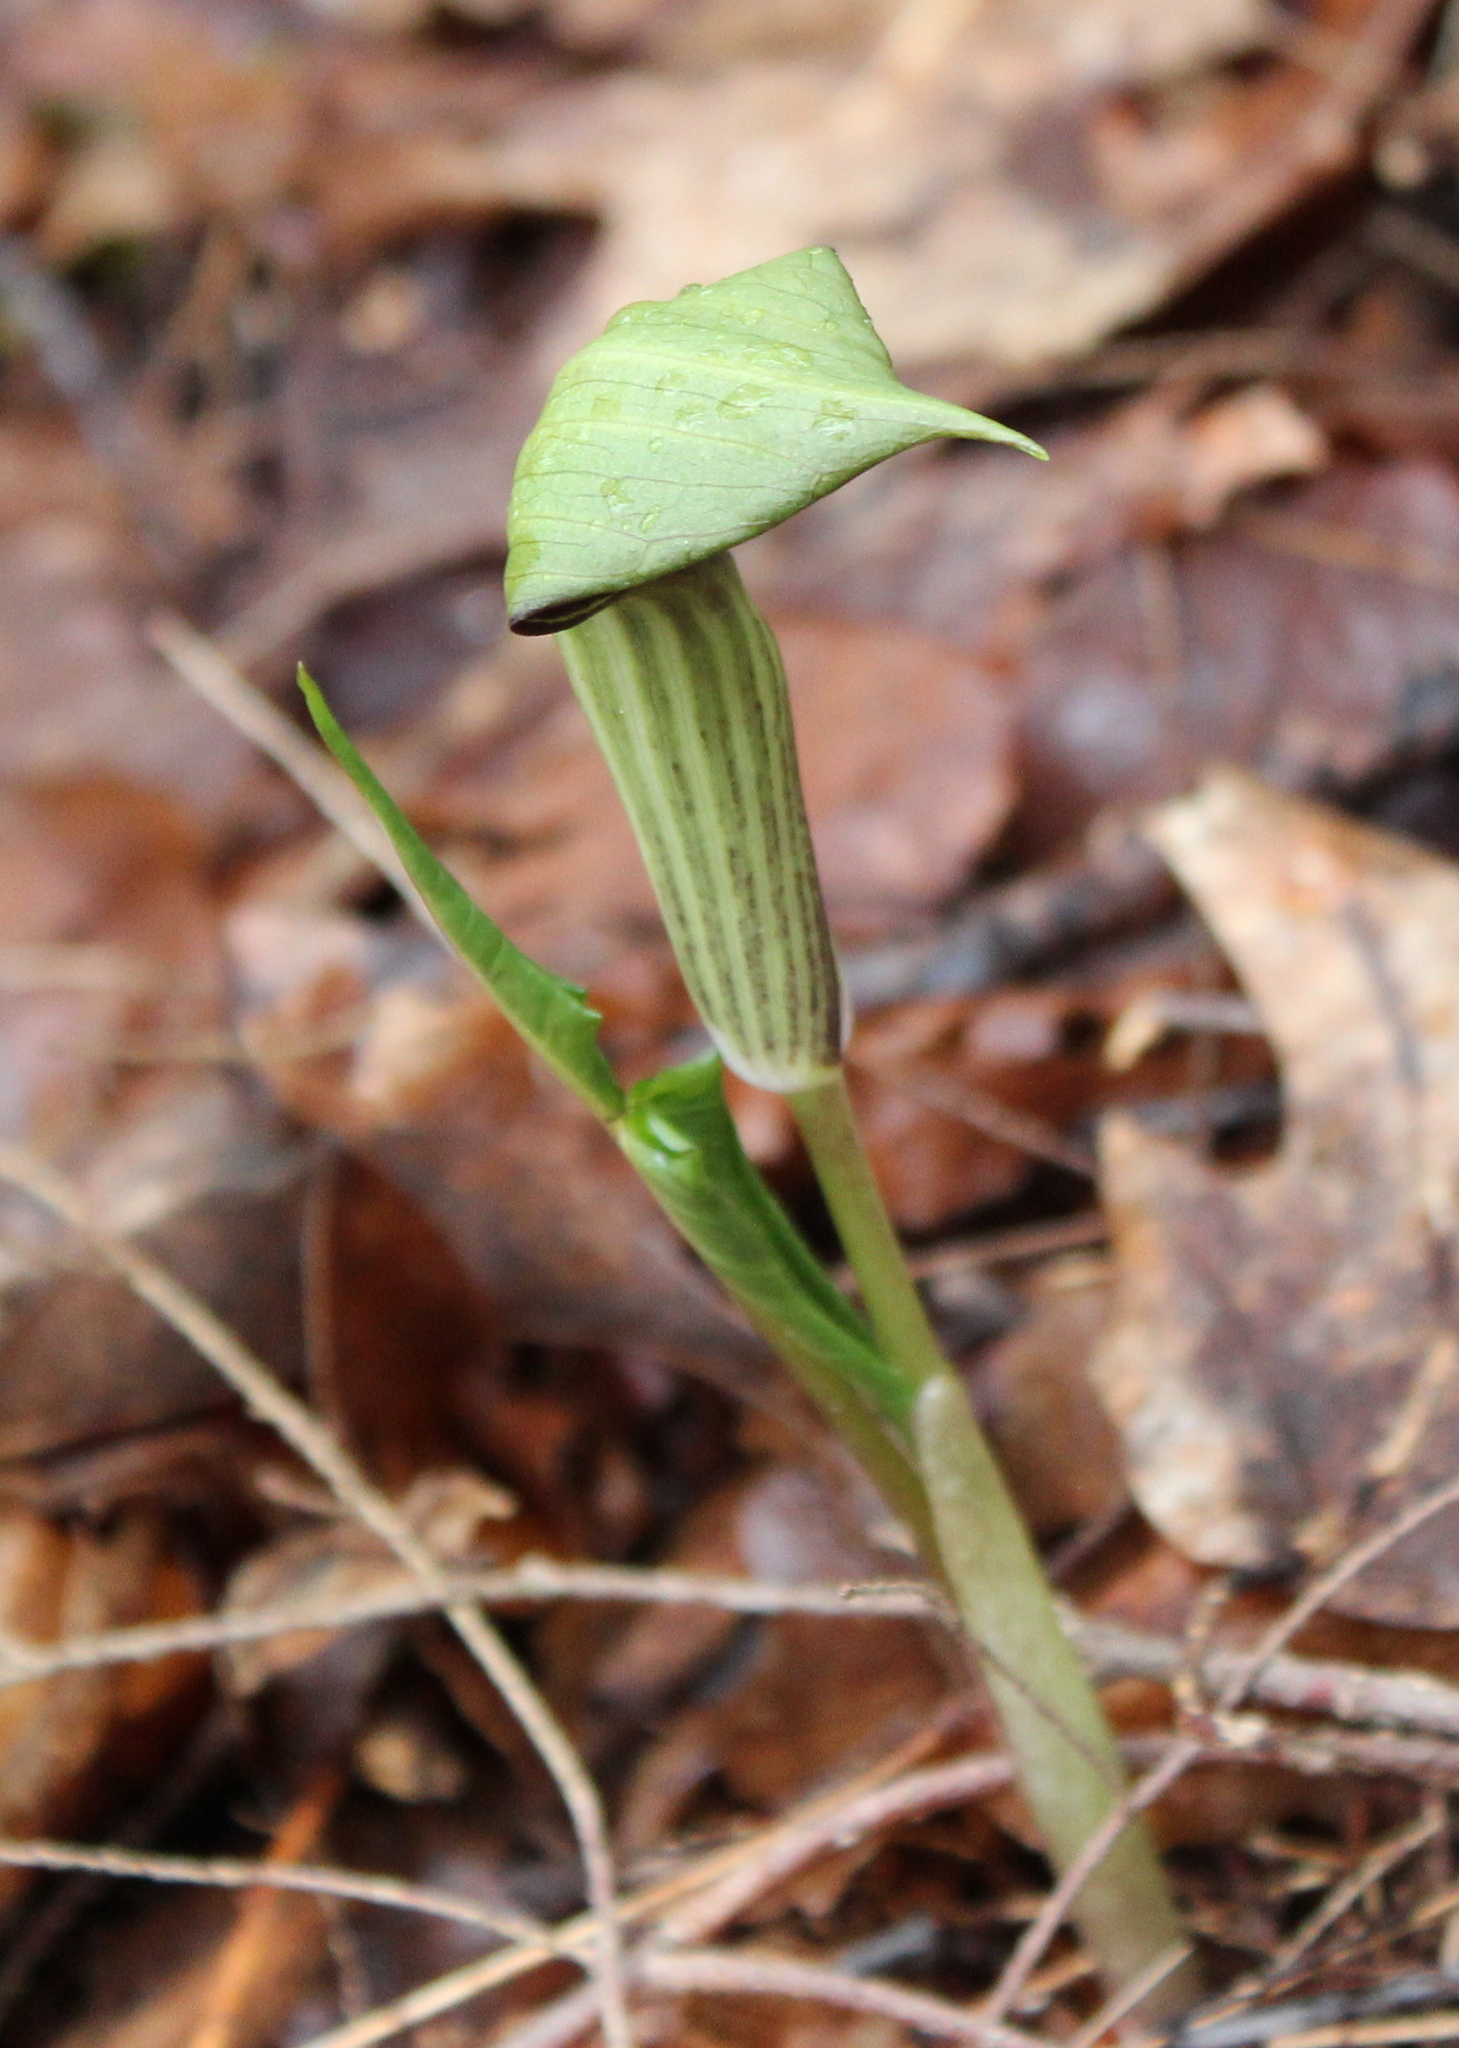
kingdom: Plantae
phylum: Tracheophyta
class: Liliopsida
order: Alismatales
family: Araceae
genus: Arisaema
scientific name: Arisaema triphyllum
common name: Jack-in-the-pulpit
